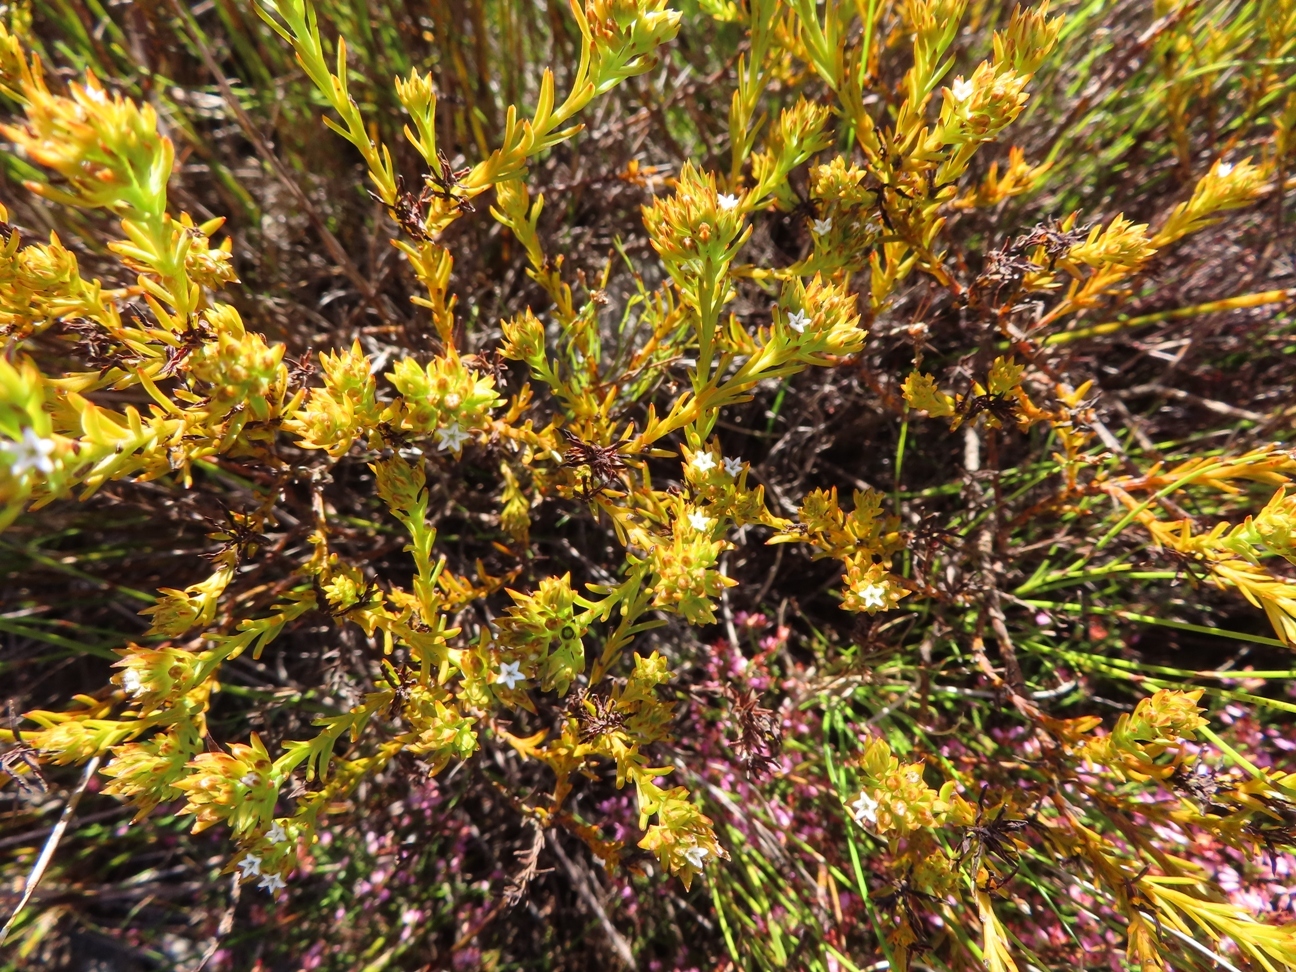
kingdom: Plantae
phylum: Tracheophyta
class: Magnoliopsida
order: Santalales
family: Thesiaceae
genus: Thesium
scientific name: Thesium capitatum
